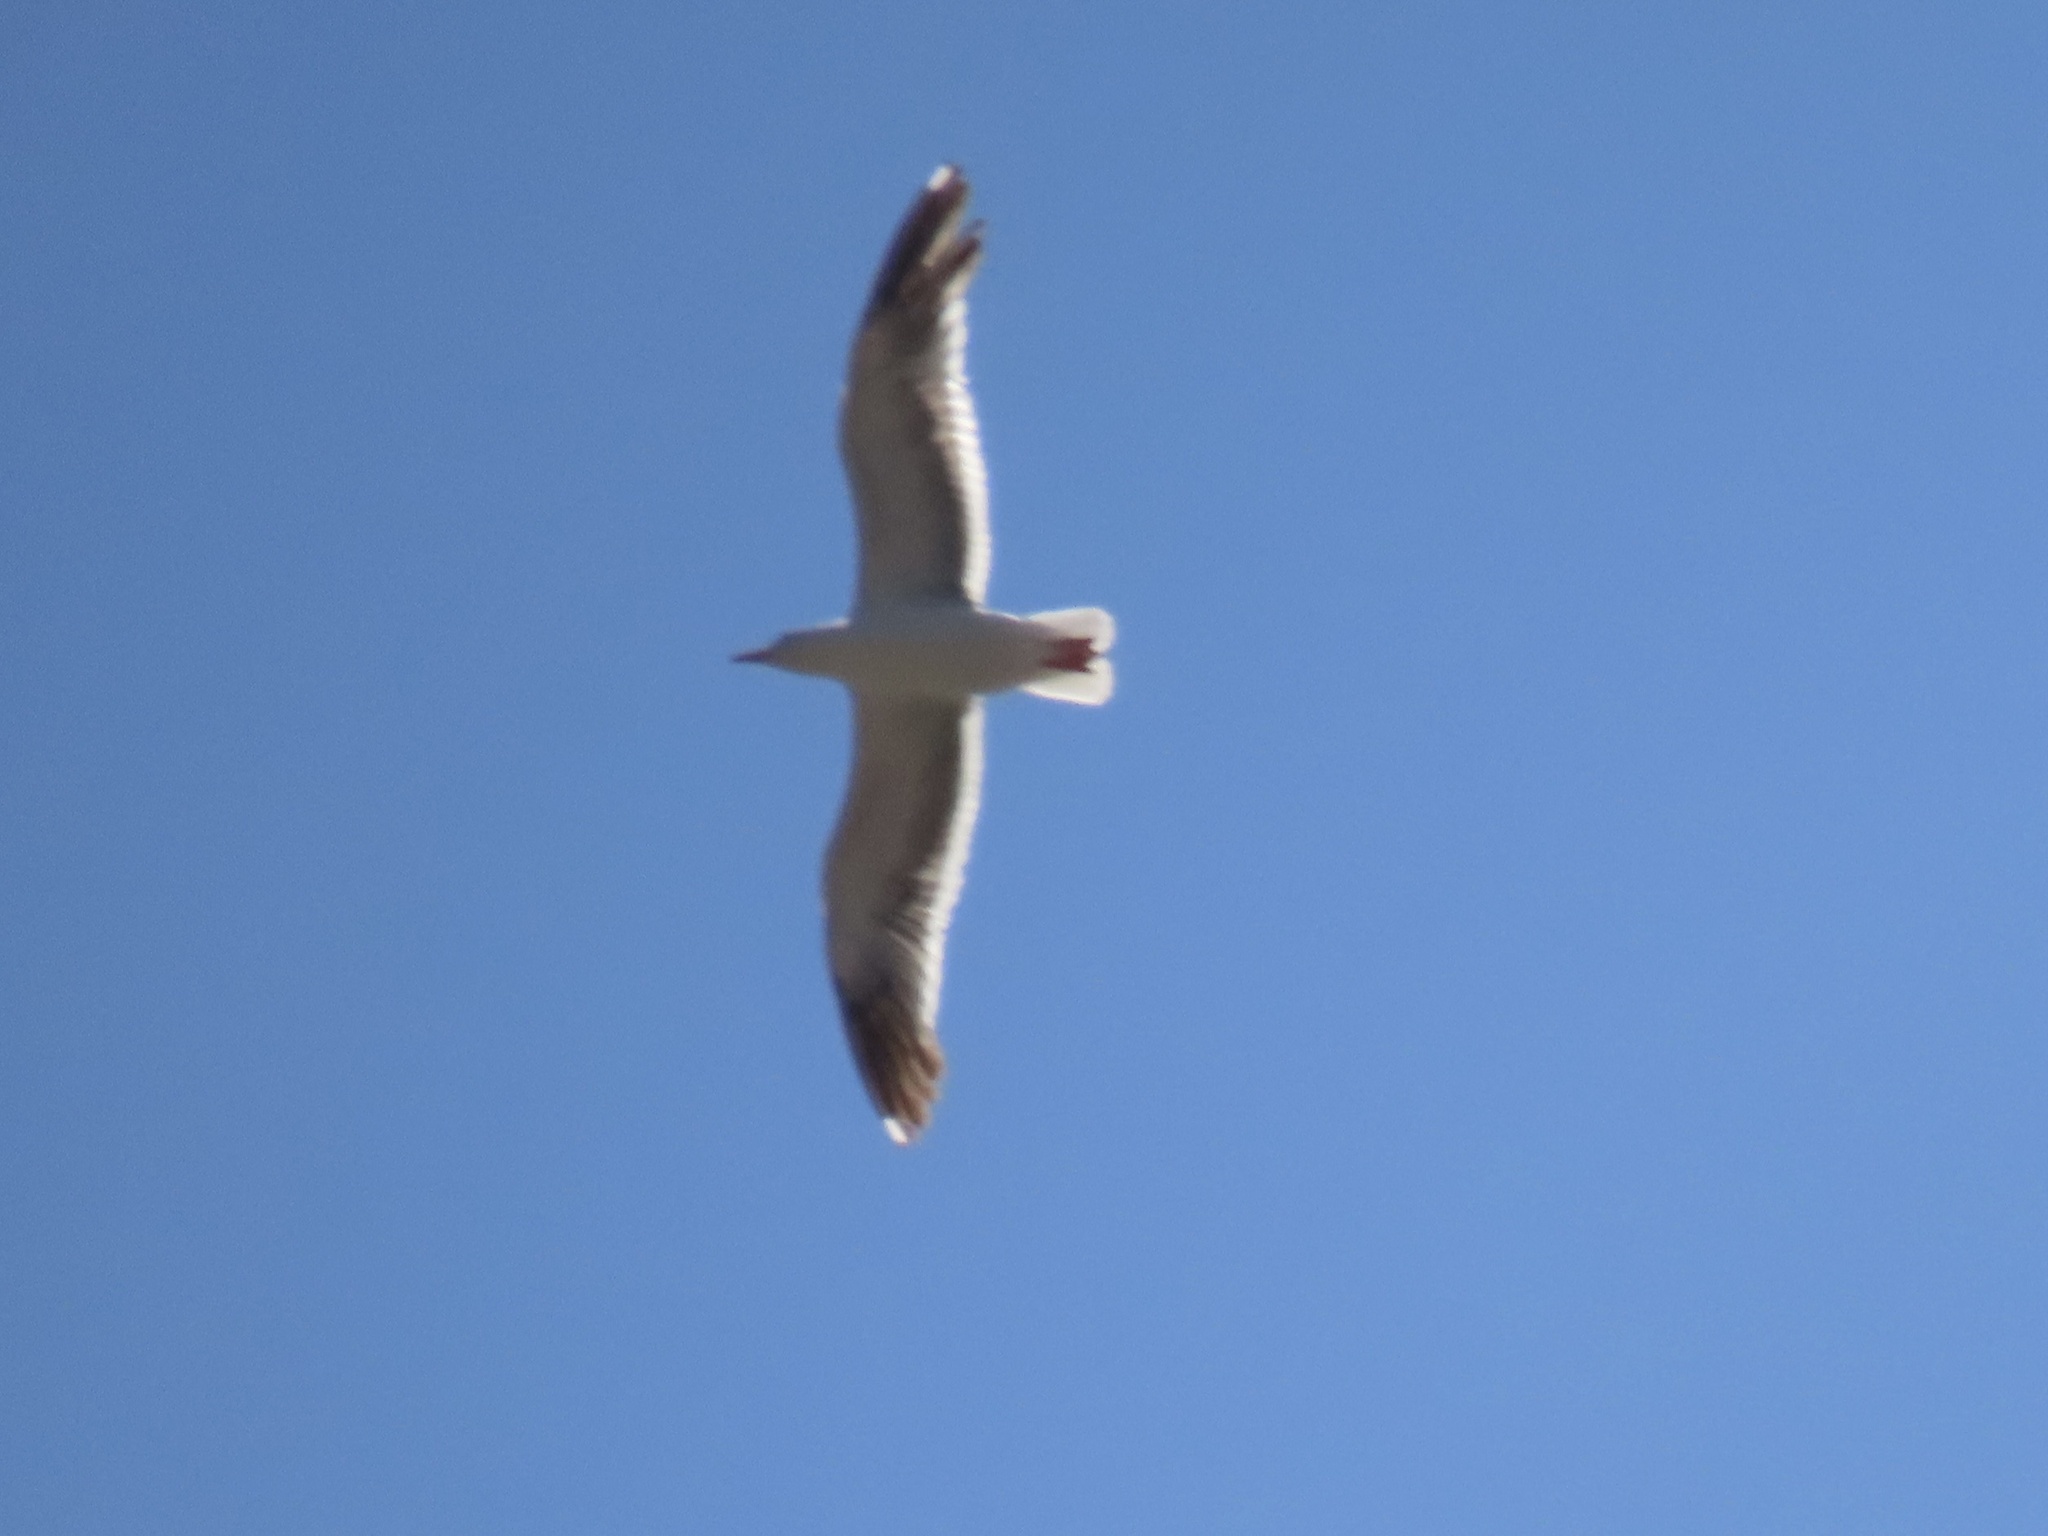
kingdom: Animalia
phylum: Chordata
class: Aves
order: Charadriiformes
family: Laridae
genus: Larus
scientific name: Larus occidentalis
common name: Western gull
